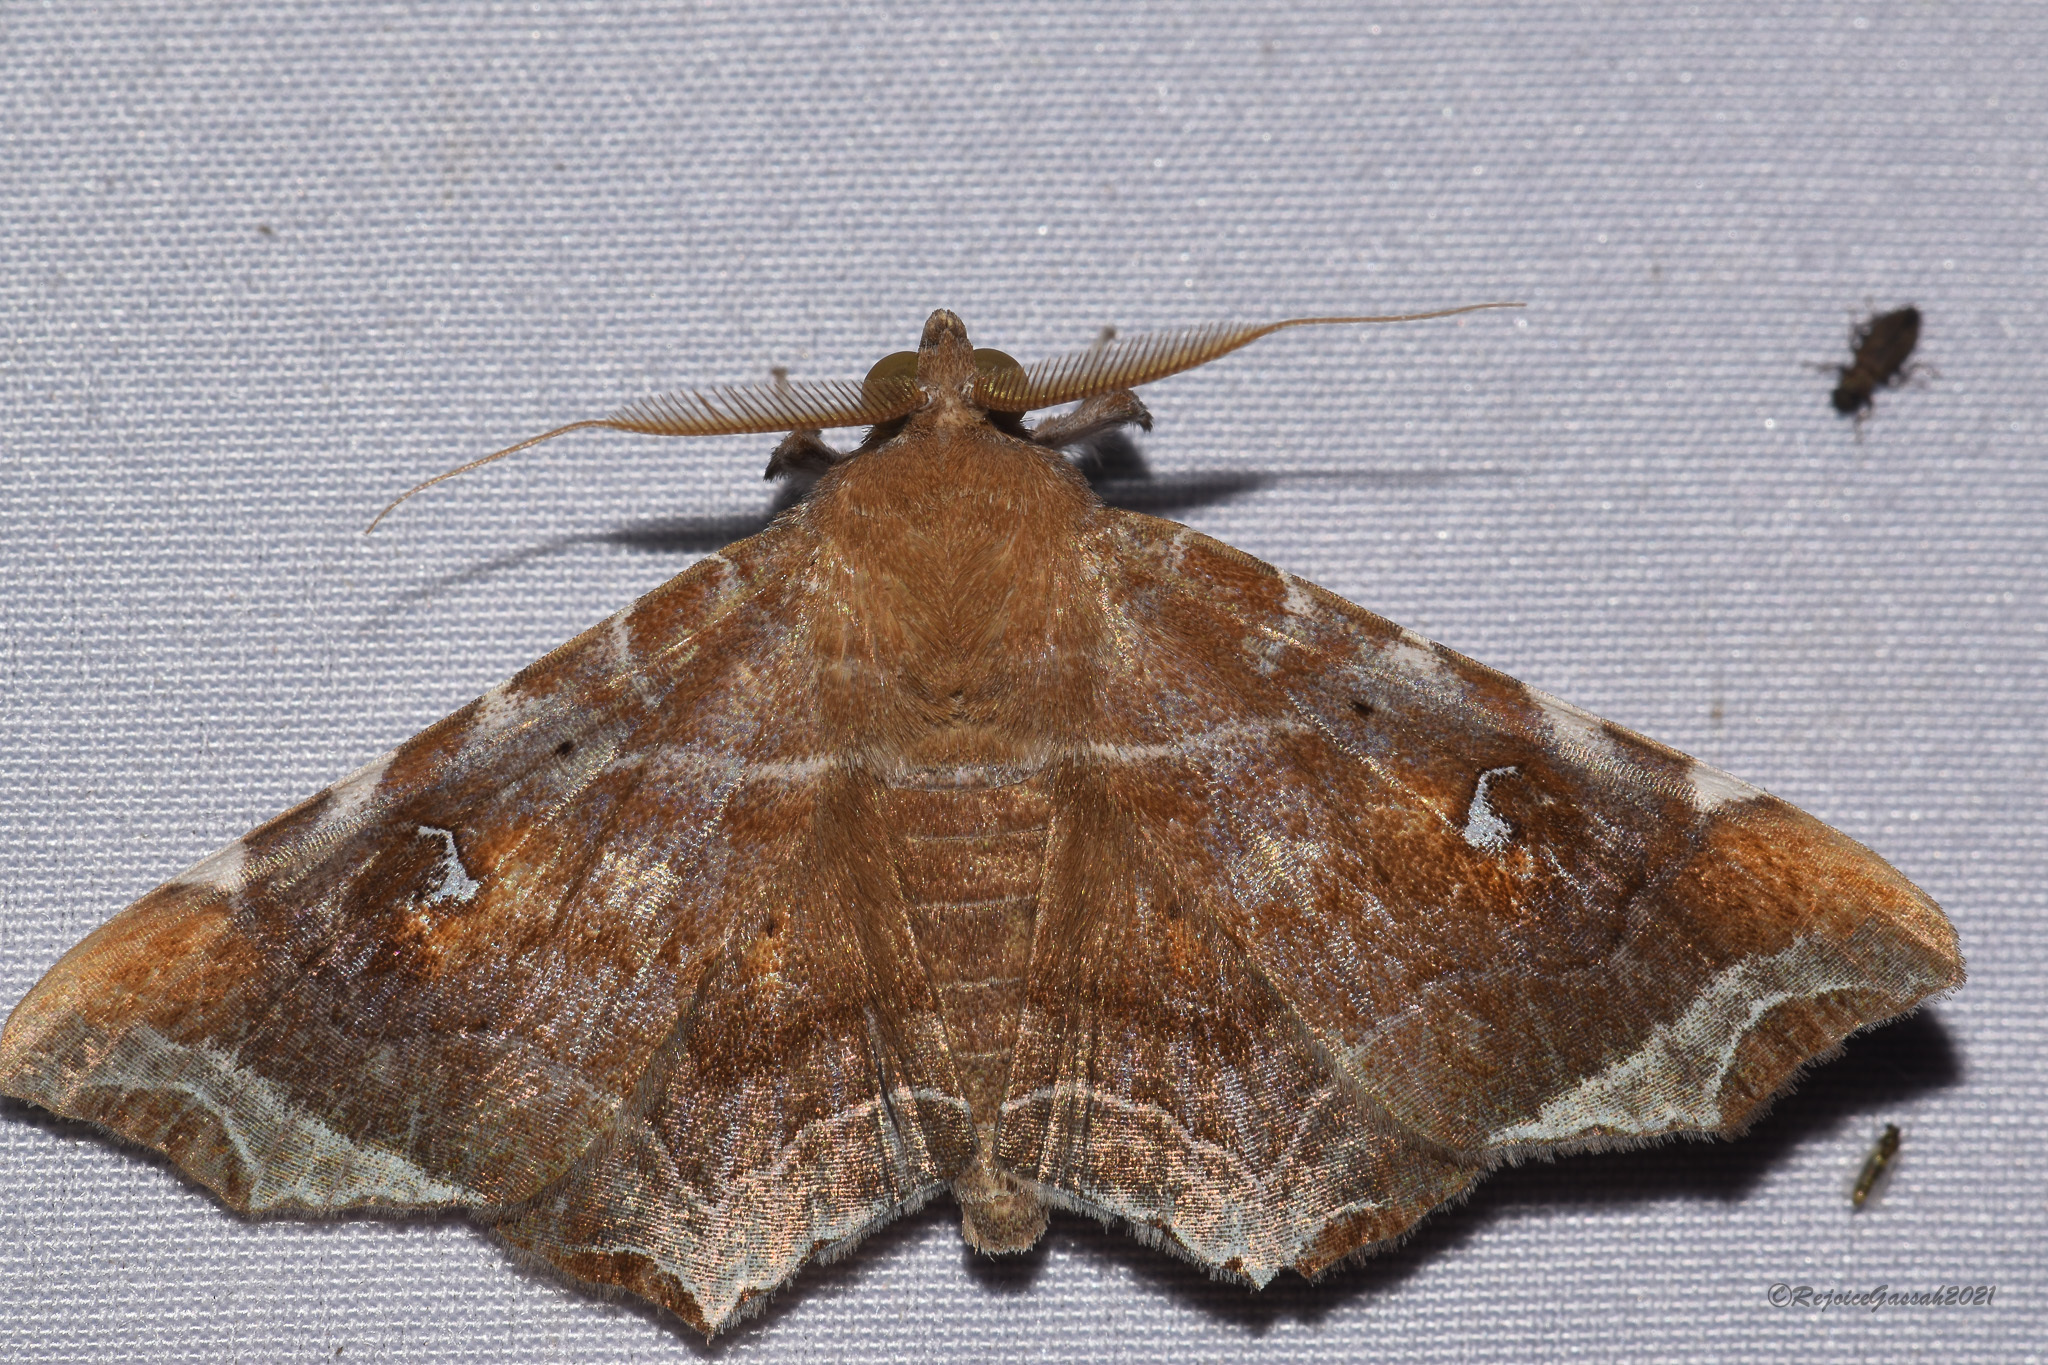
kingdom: Animalia
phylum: Arthropoda
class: Insecta
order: Lepidoptera
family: Erebidae
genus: Episparis
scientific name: Episparis liturata
